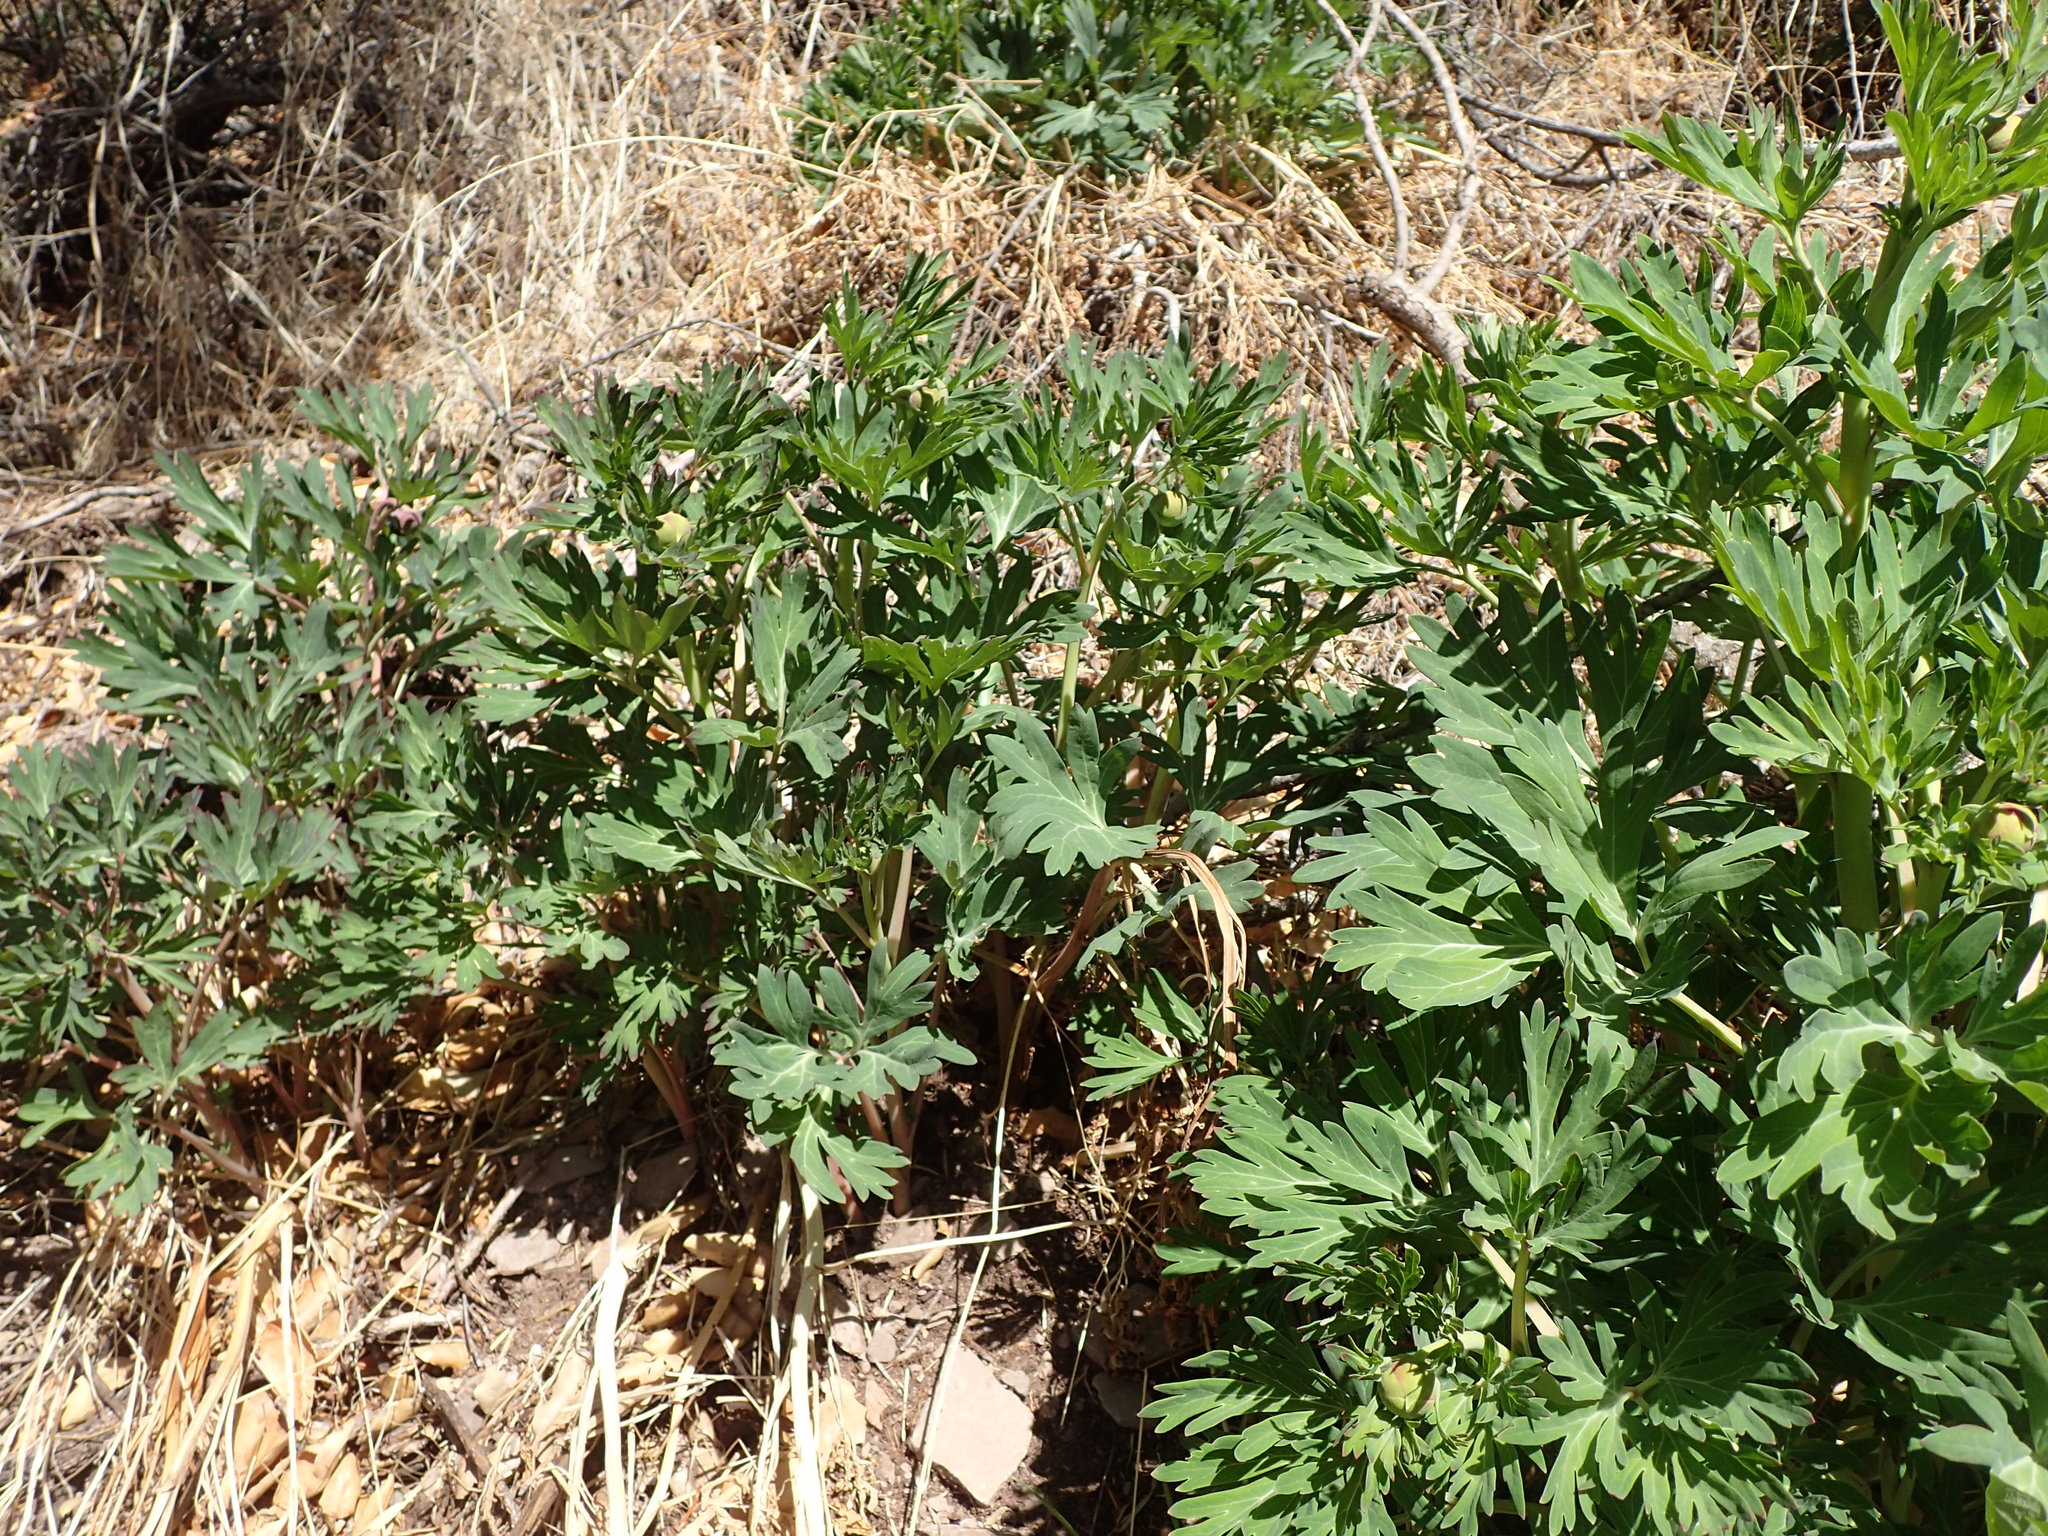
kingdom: Plantae
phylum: Tracheophyta
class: Magnoliopsida
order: Saxifragales
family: Paeoniaceae
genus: Paeonia
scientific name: Paeonia californica
